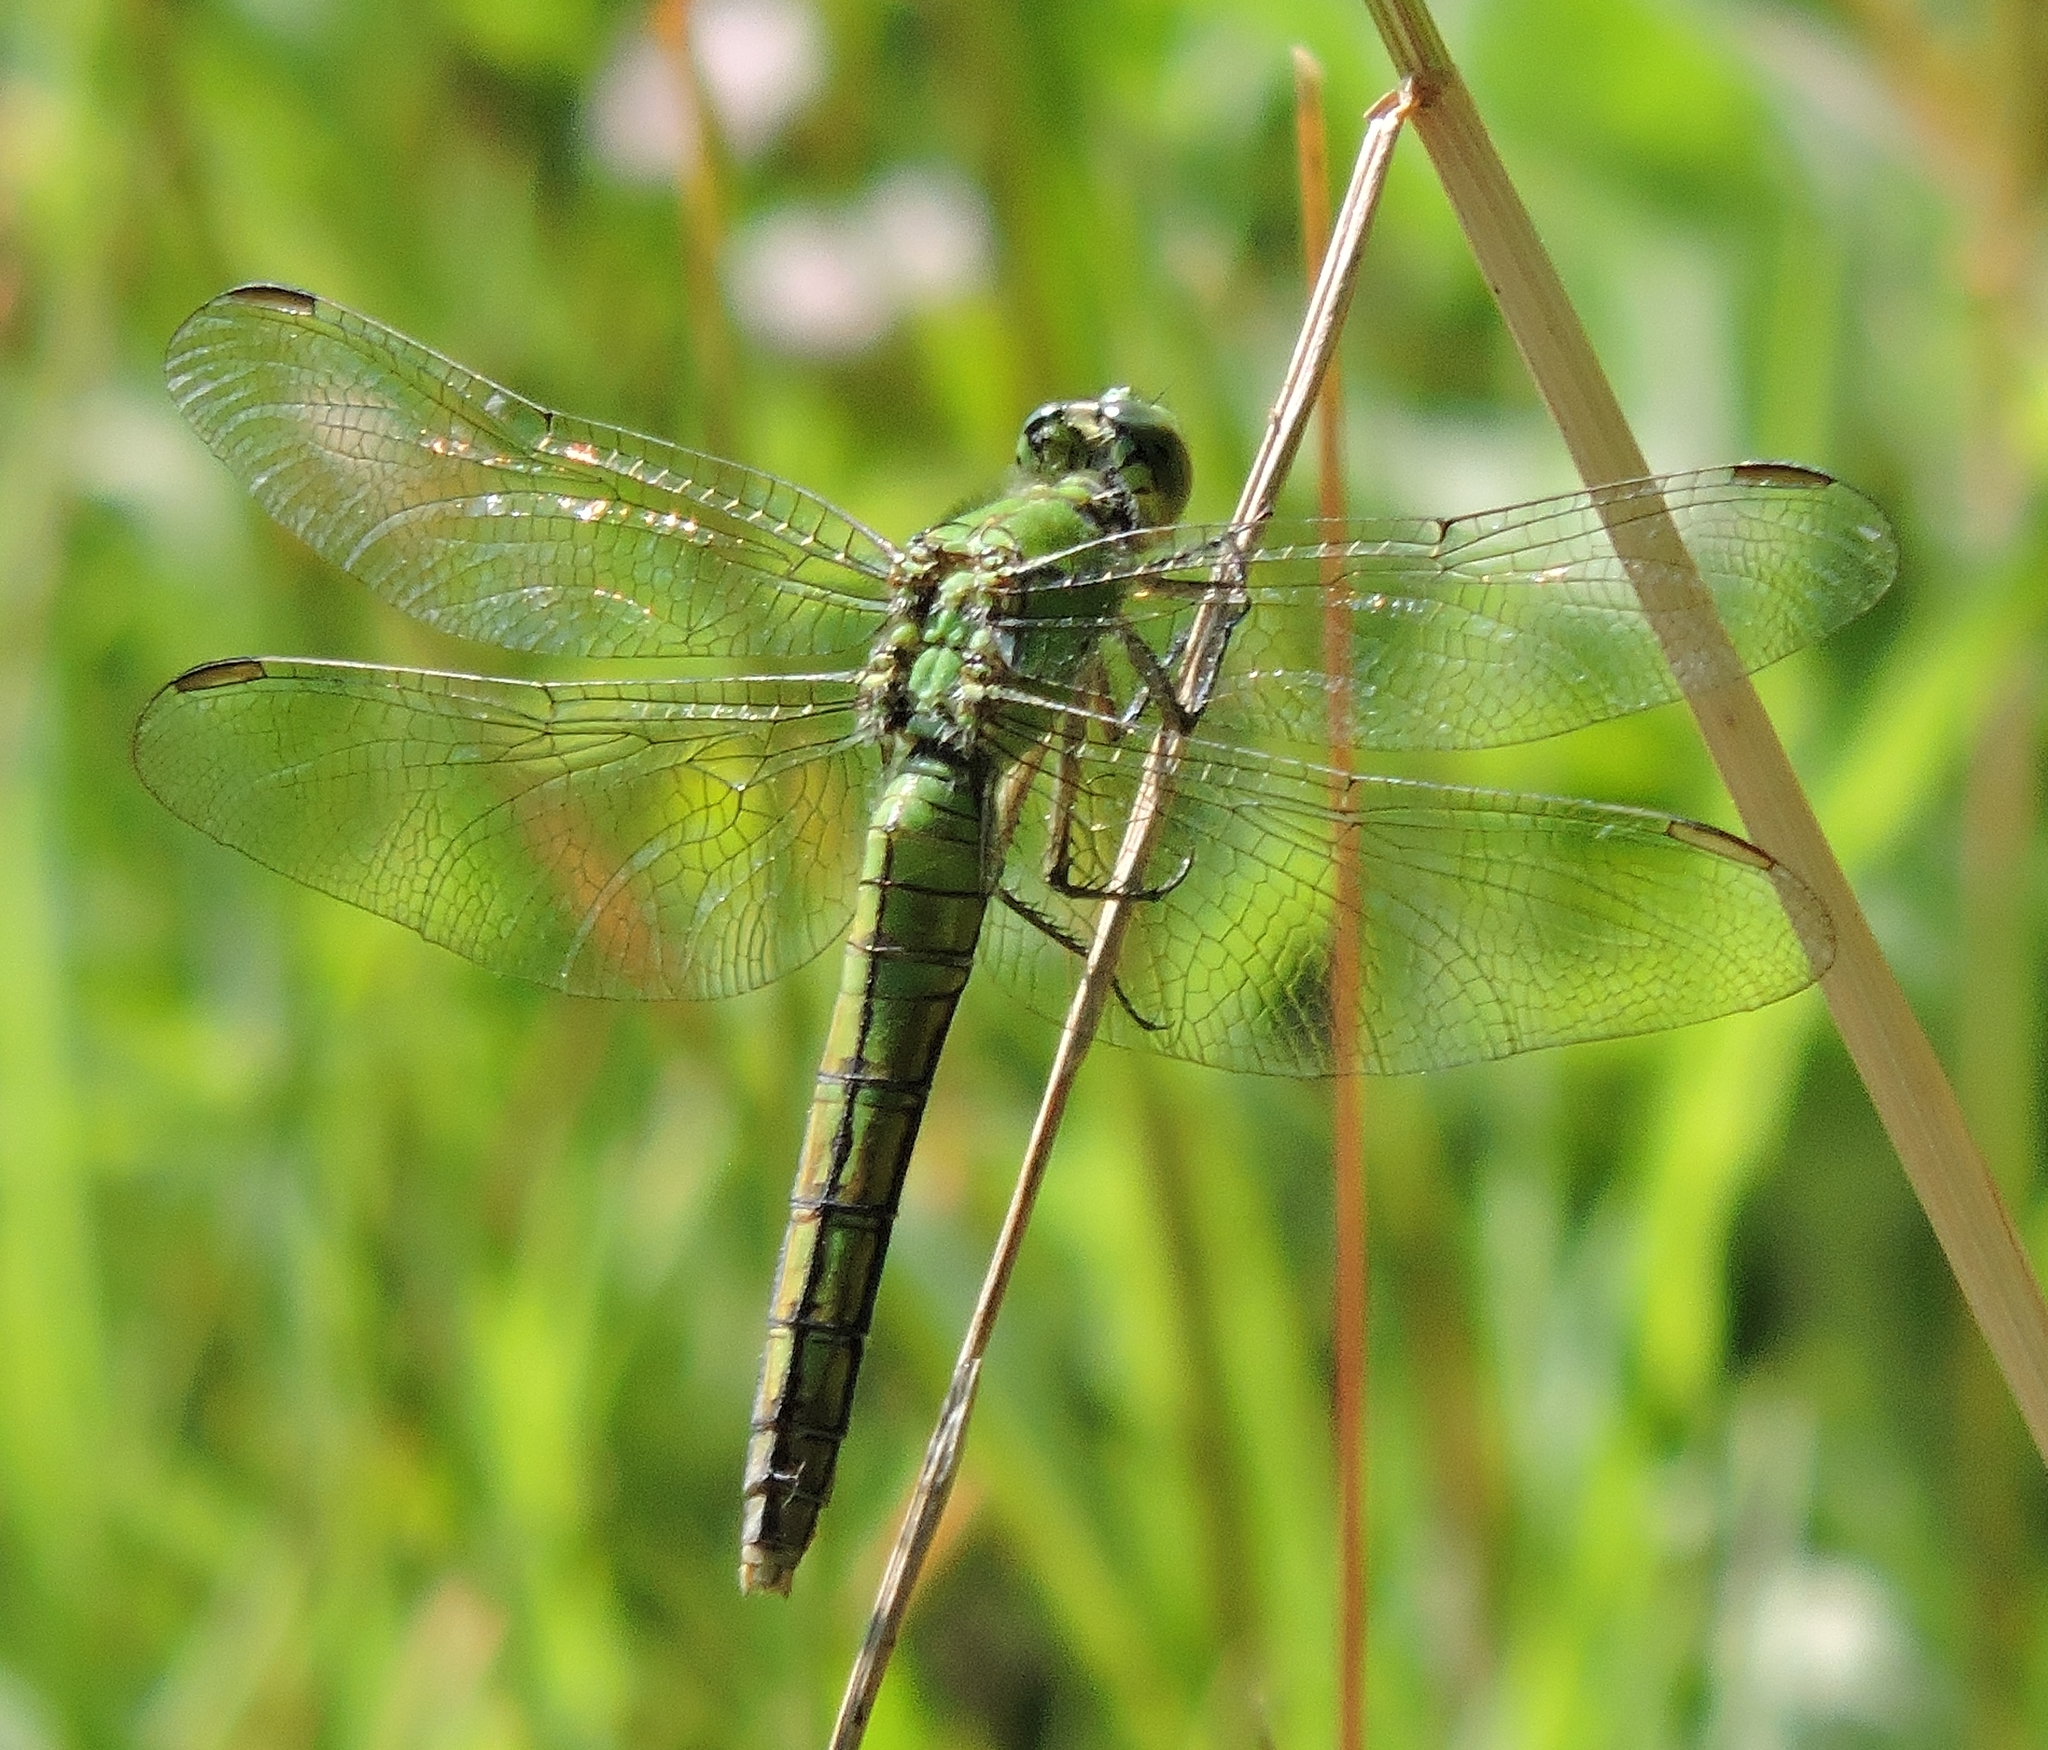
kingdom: Animalia
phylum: Arthropoda
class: Insecta
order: Odonata
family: Libellulidae
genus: Erythemis
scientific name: Erythemis collocata
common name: Western pondhawk
